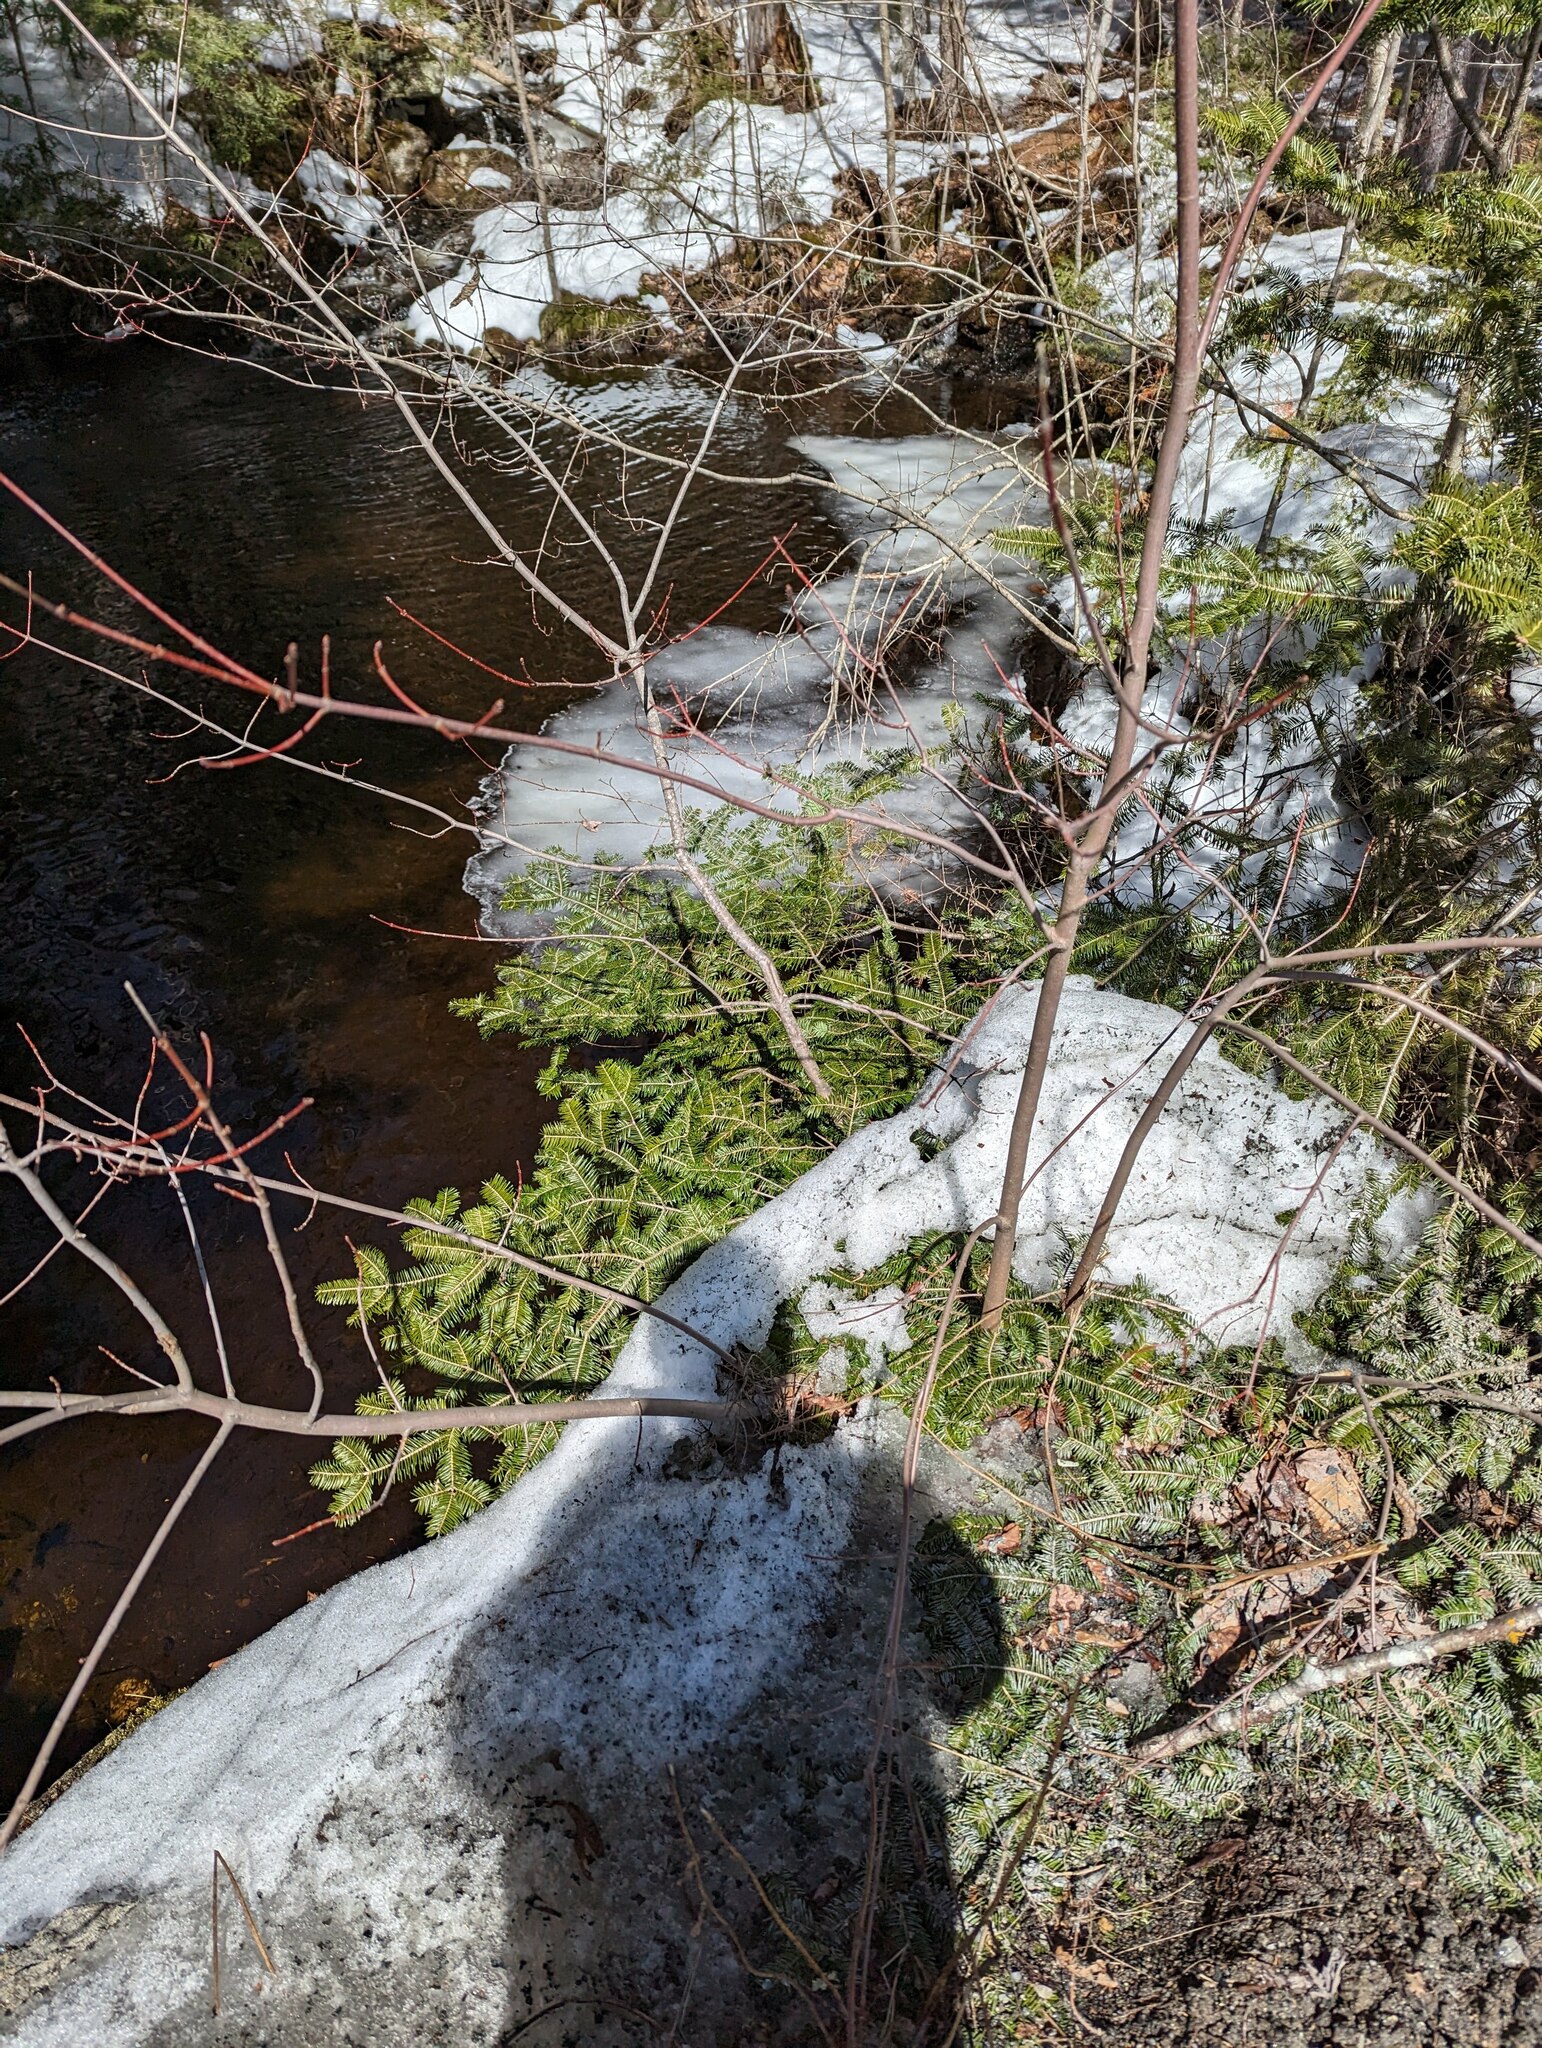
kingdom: Plantae
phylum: Tracheophyta
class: Pinopsida
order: Pinales
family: Pinaceae
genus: Abies
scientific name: Abies balsamea
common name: Balsam fir
